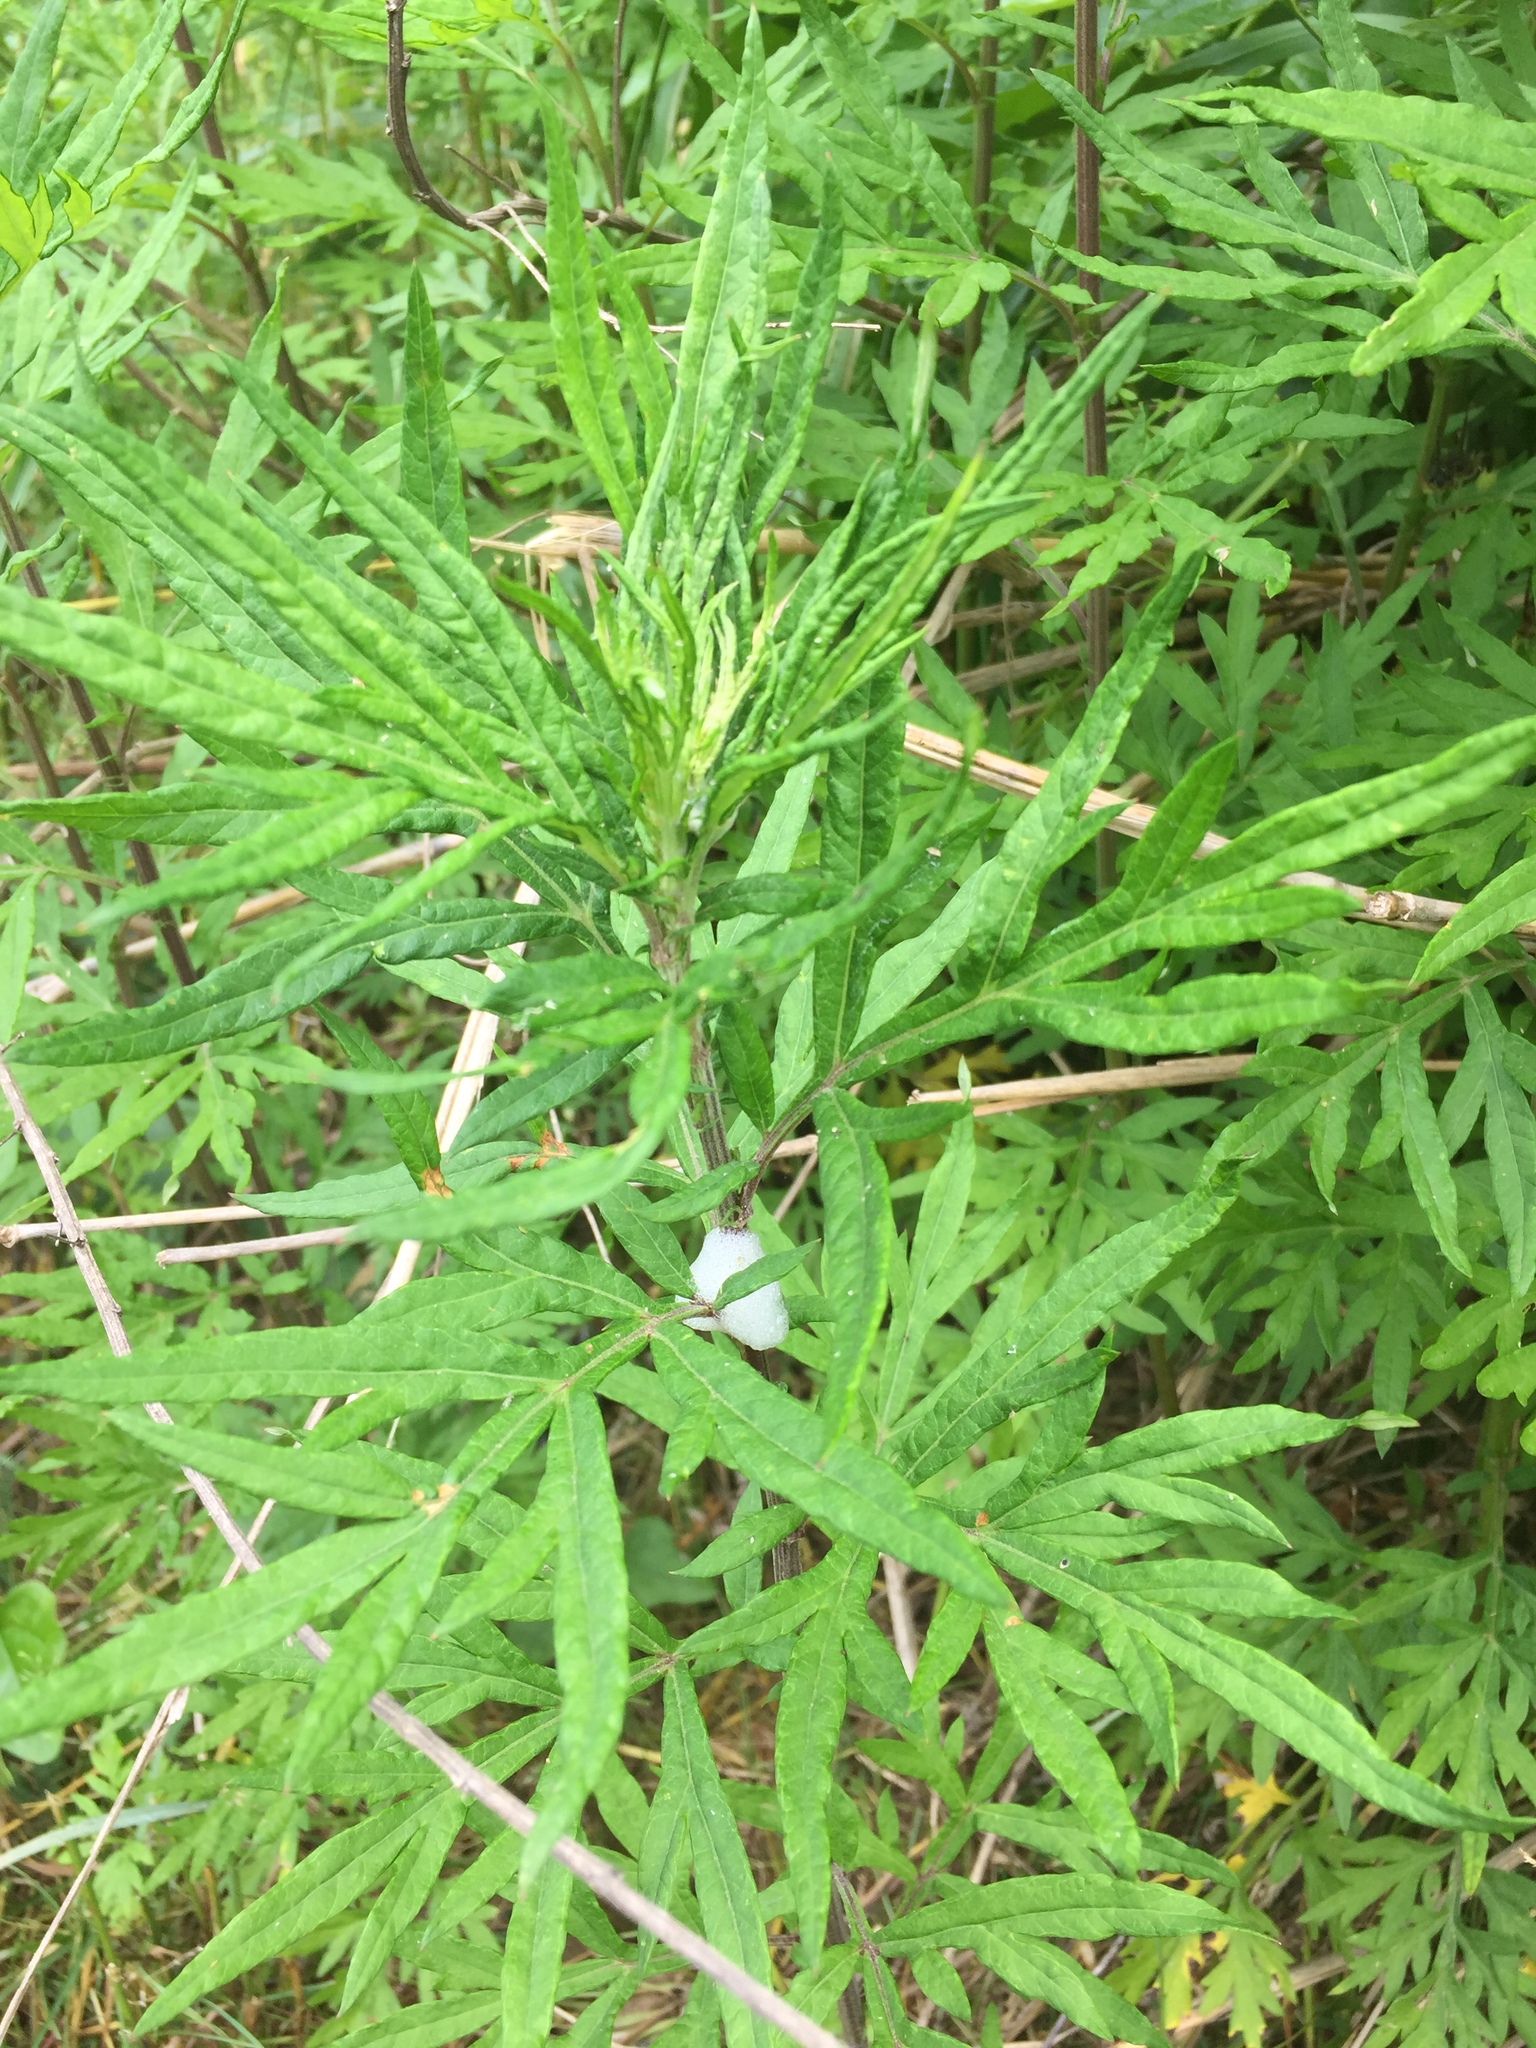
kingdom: Plantae
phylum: Tracheophyta
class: Magnoliopsida
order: Asterales
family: Asteraceae
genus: Artemisia
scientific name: Artemisia vulgaris
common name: Mugwort
